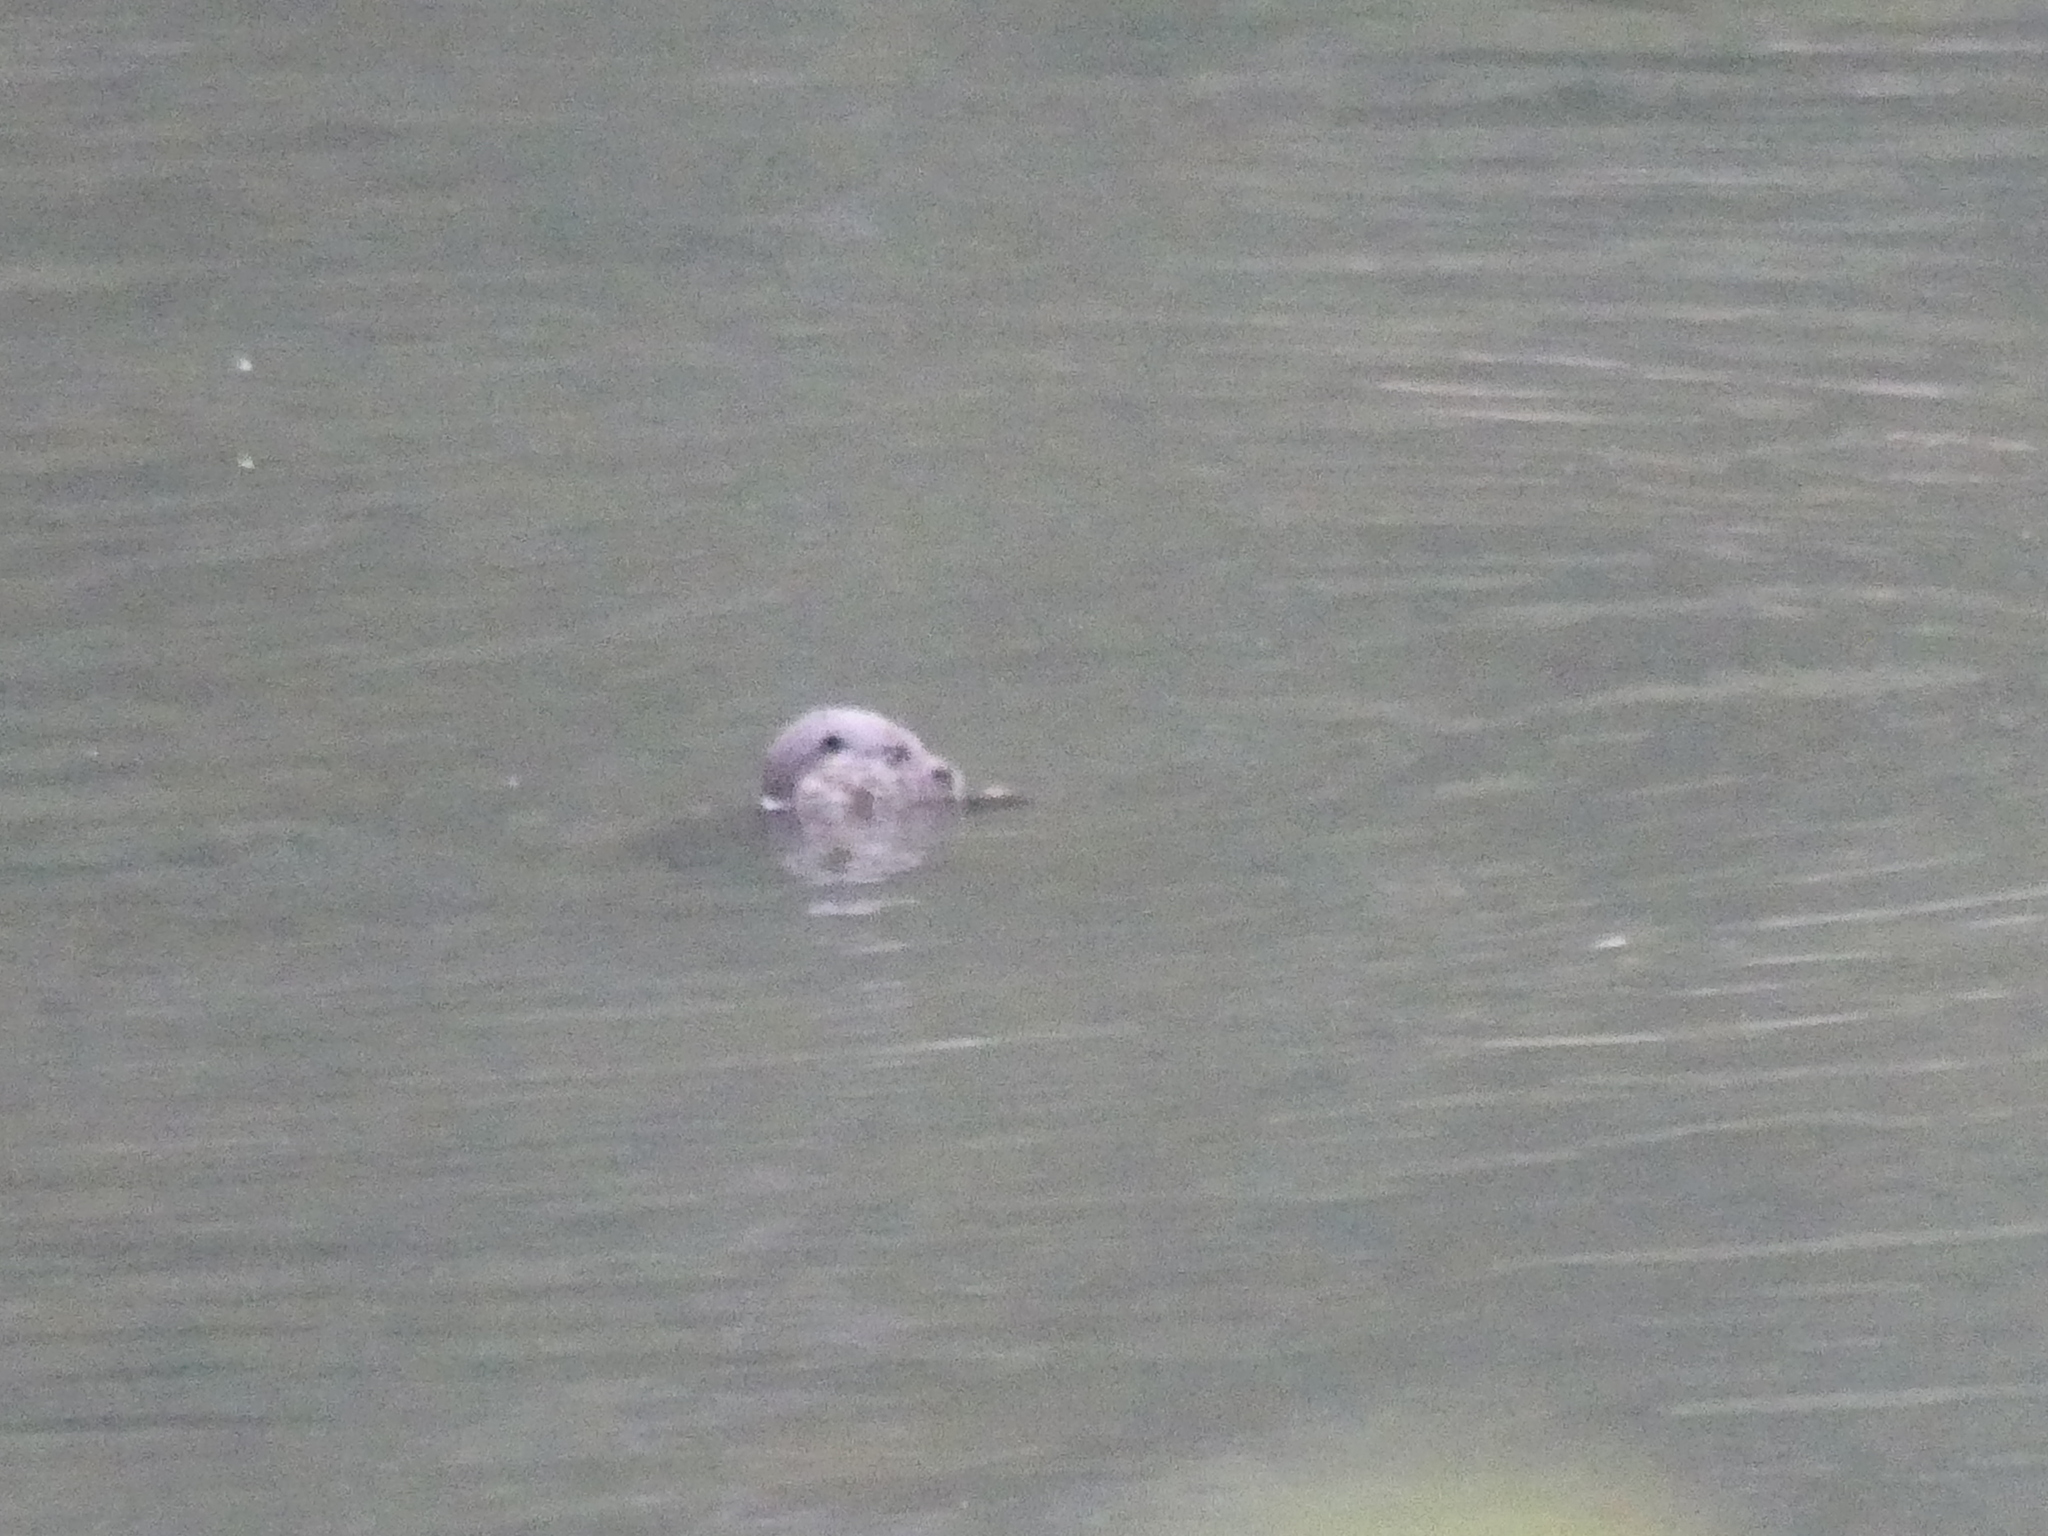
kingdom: Animalia
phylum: Chordata
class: Mammalia
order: Carnivora
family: Mustelidae
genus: Lutra
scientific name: Lutra lutra
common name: European otter
